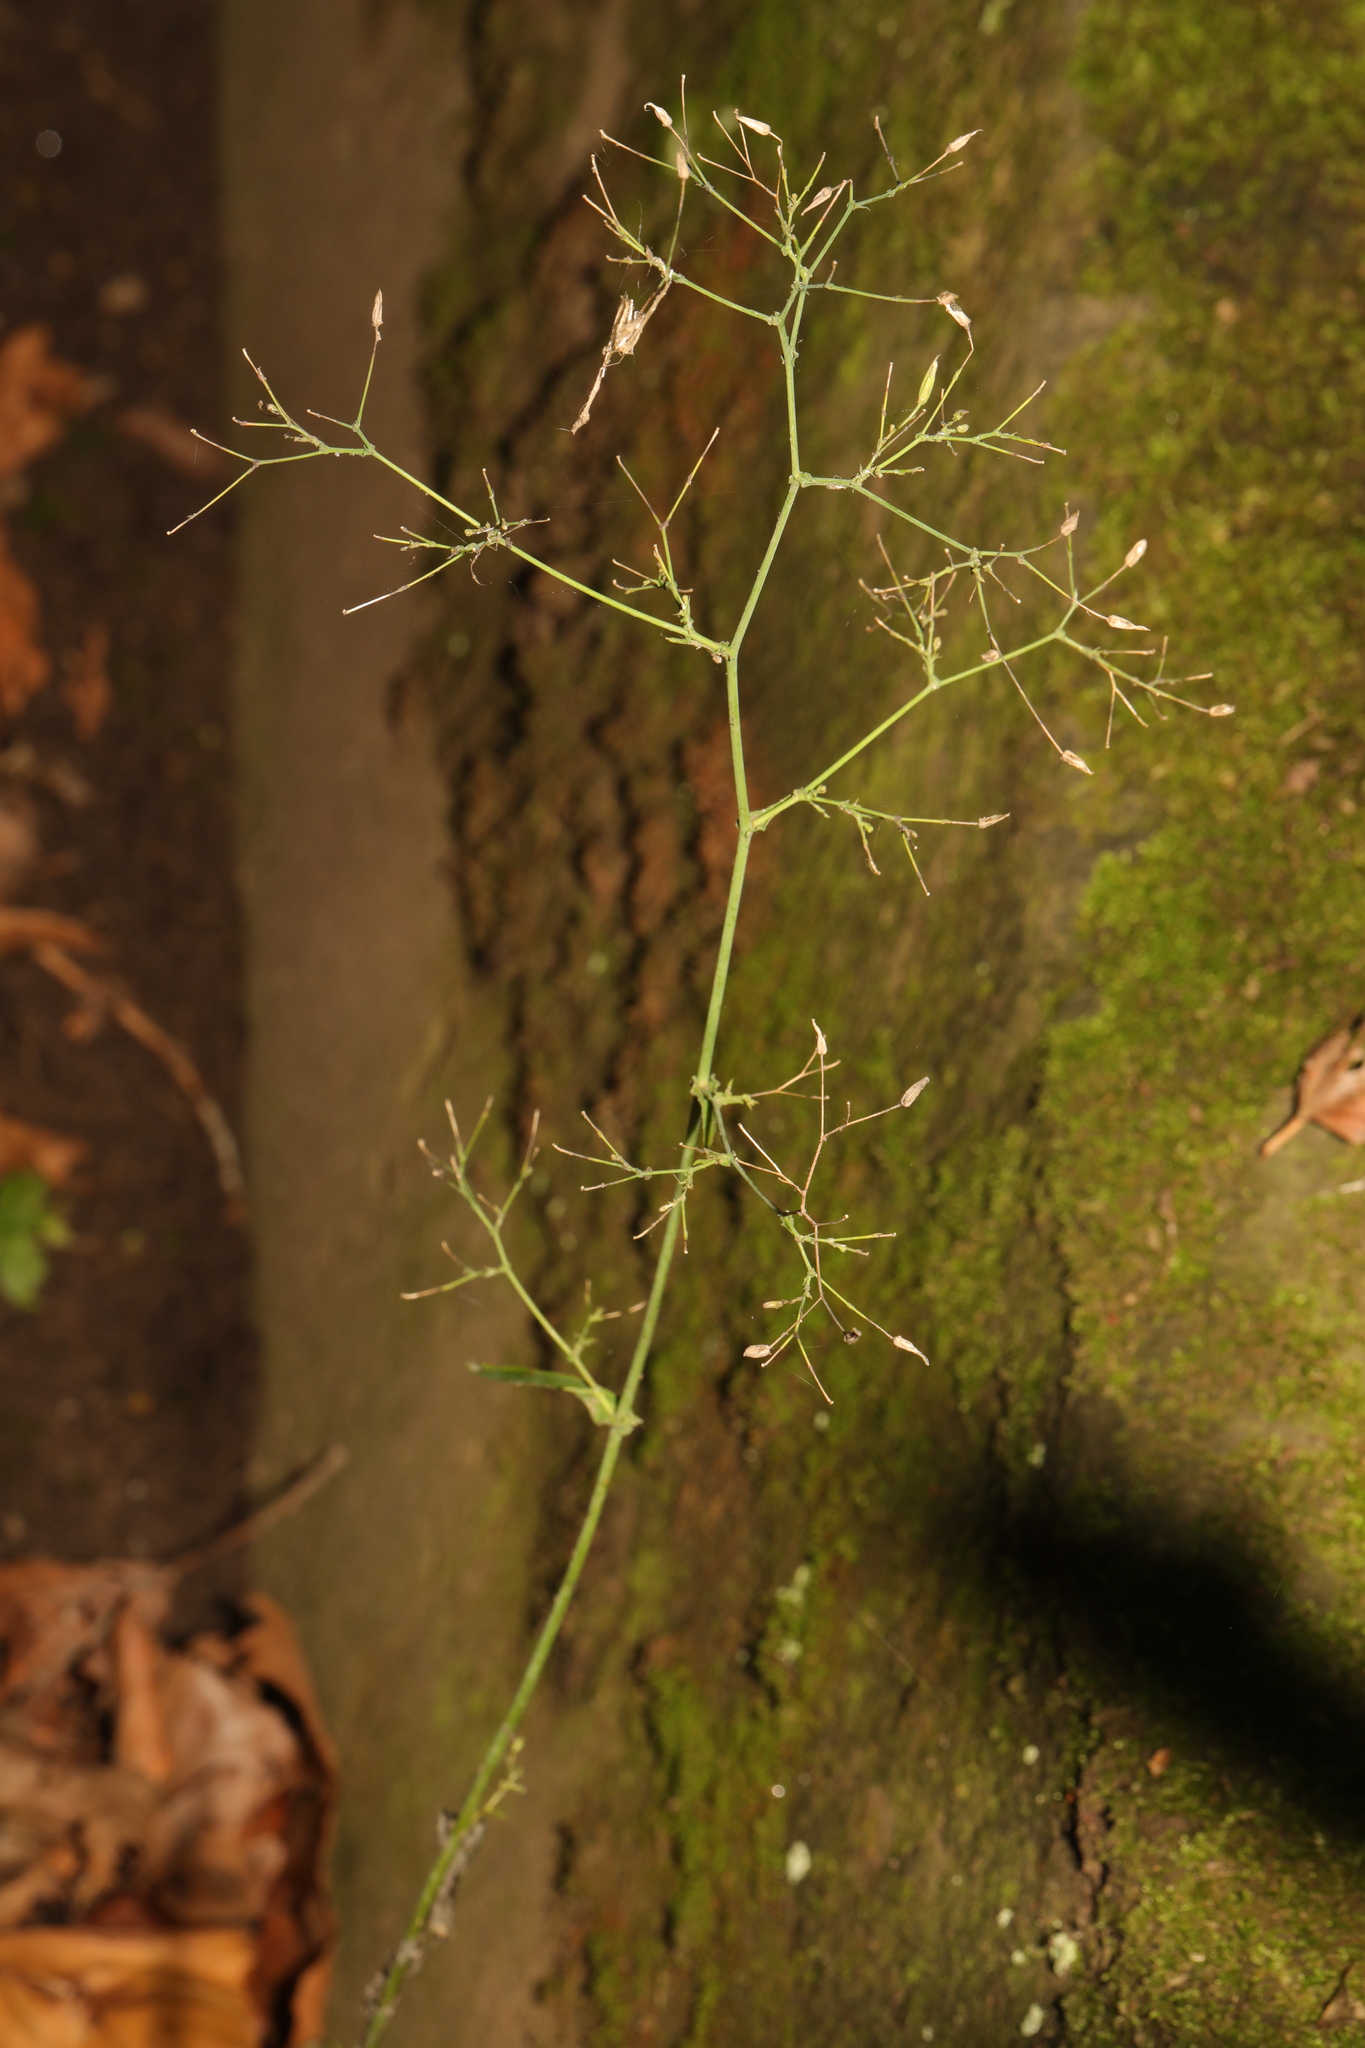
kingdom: Plantae
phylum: Tracheophyta
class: Magnoliopsida
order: Asterales
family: Asteraceae
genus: Mycelis
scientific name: Mycelis muralis
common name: Wall lettuce
